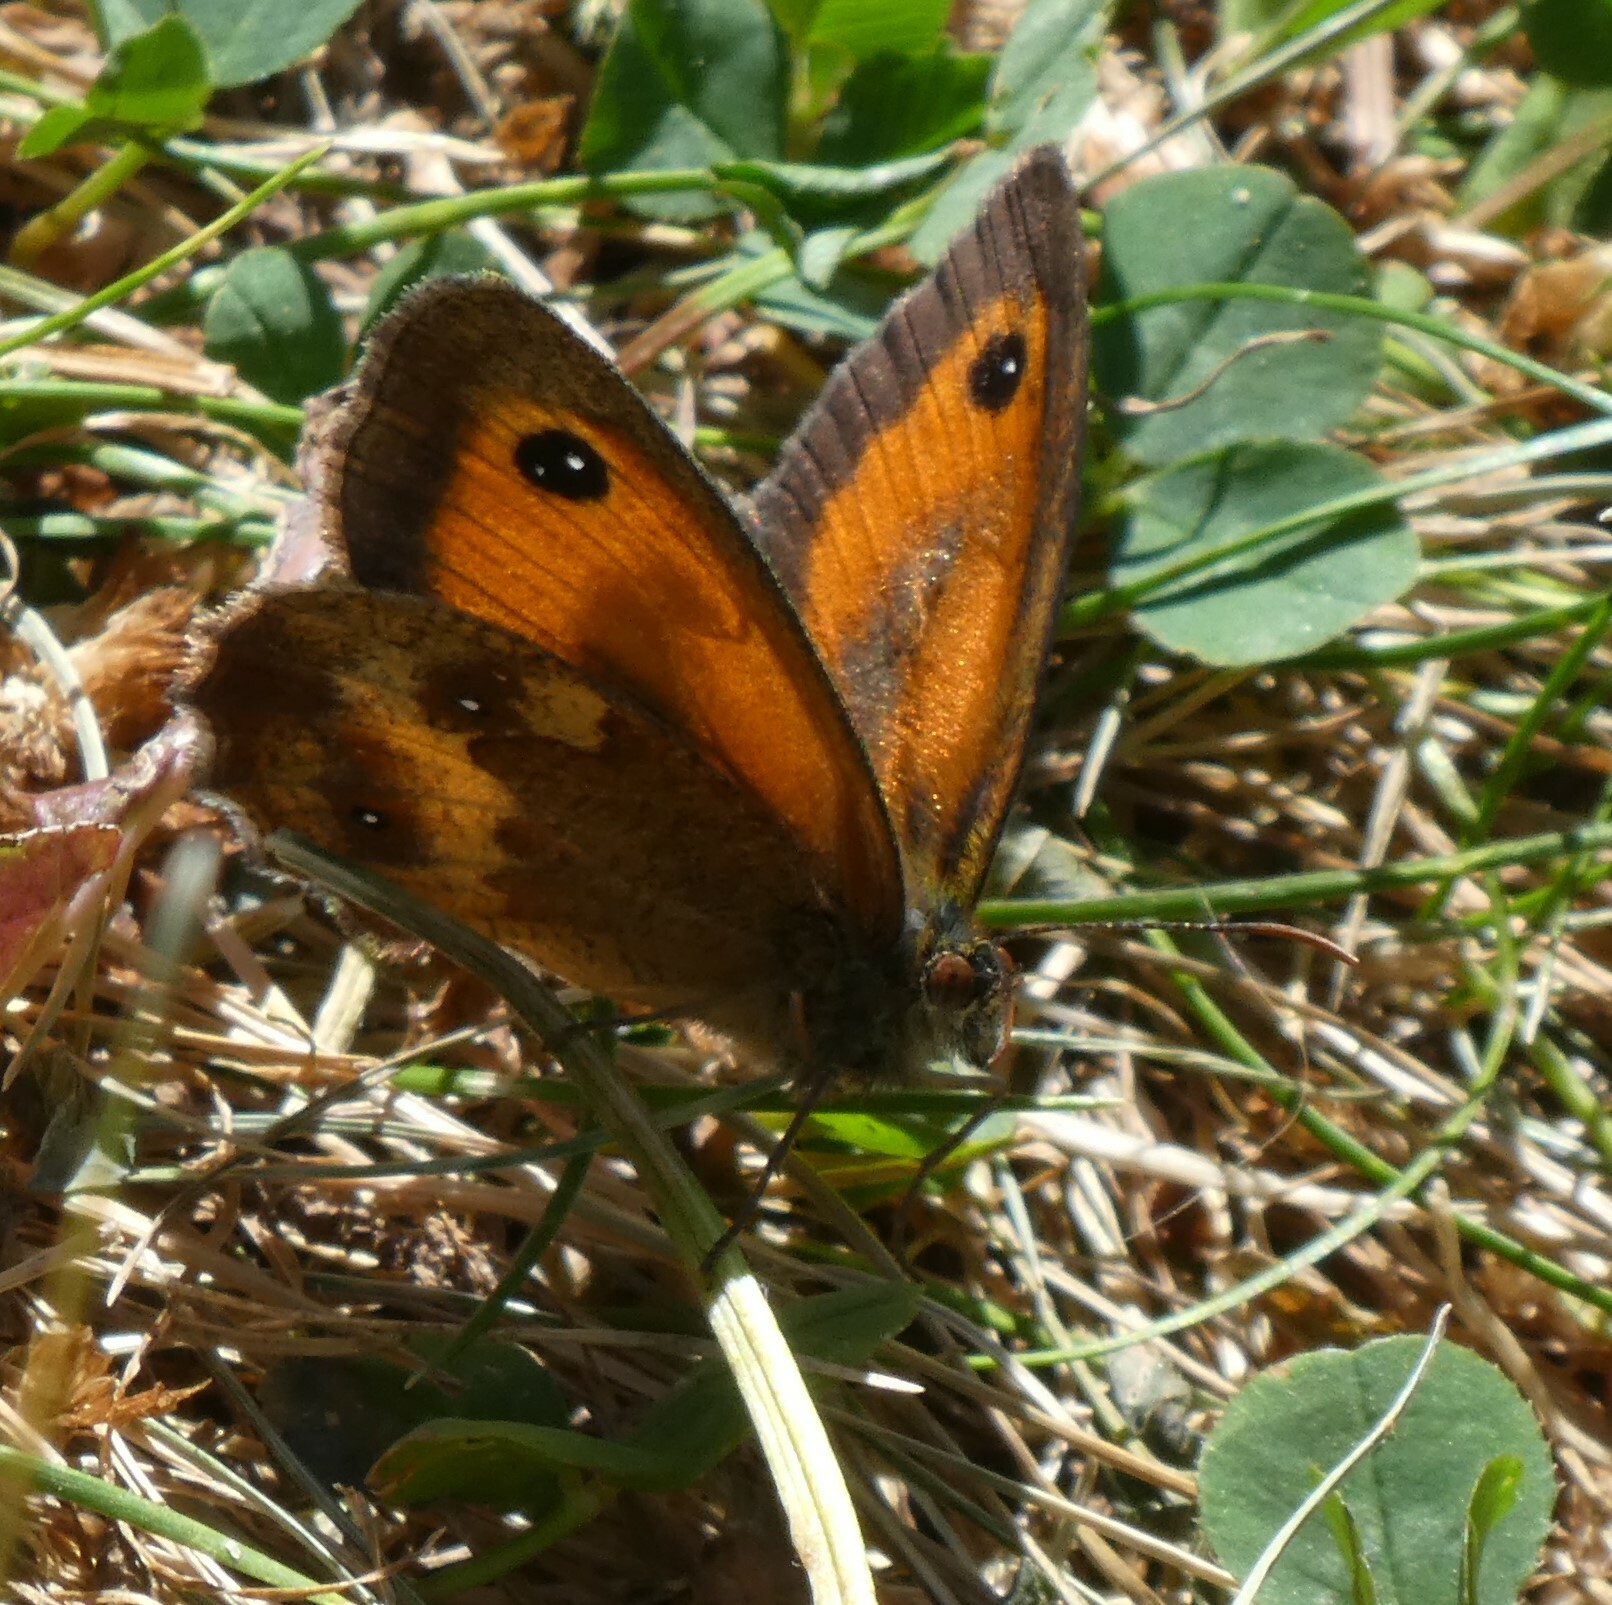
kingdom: Animalia
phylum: Arthropoda
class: Insecta
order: Lepidoptera
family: Nymphalidae
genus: Pyronia
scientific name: Pyronia tithonus
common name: Gatekeeper
